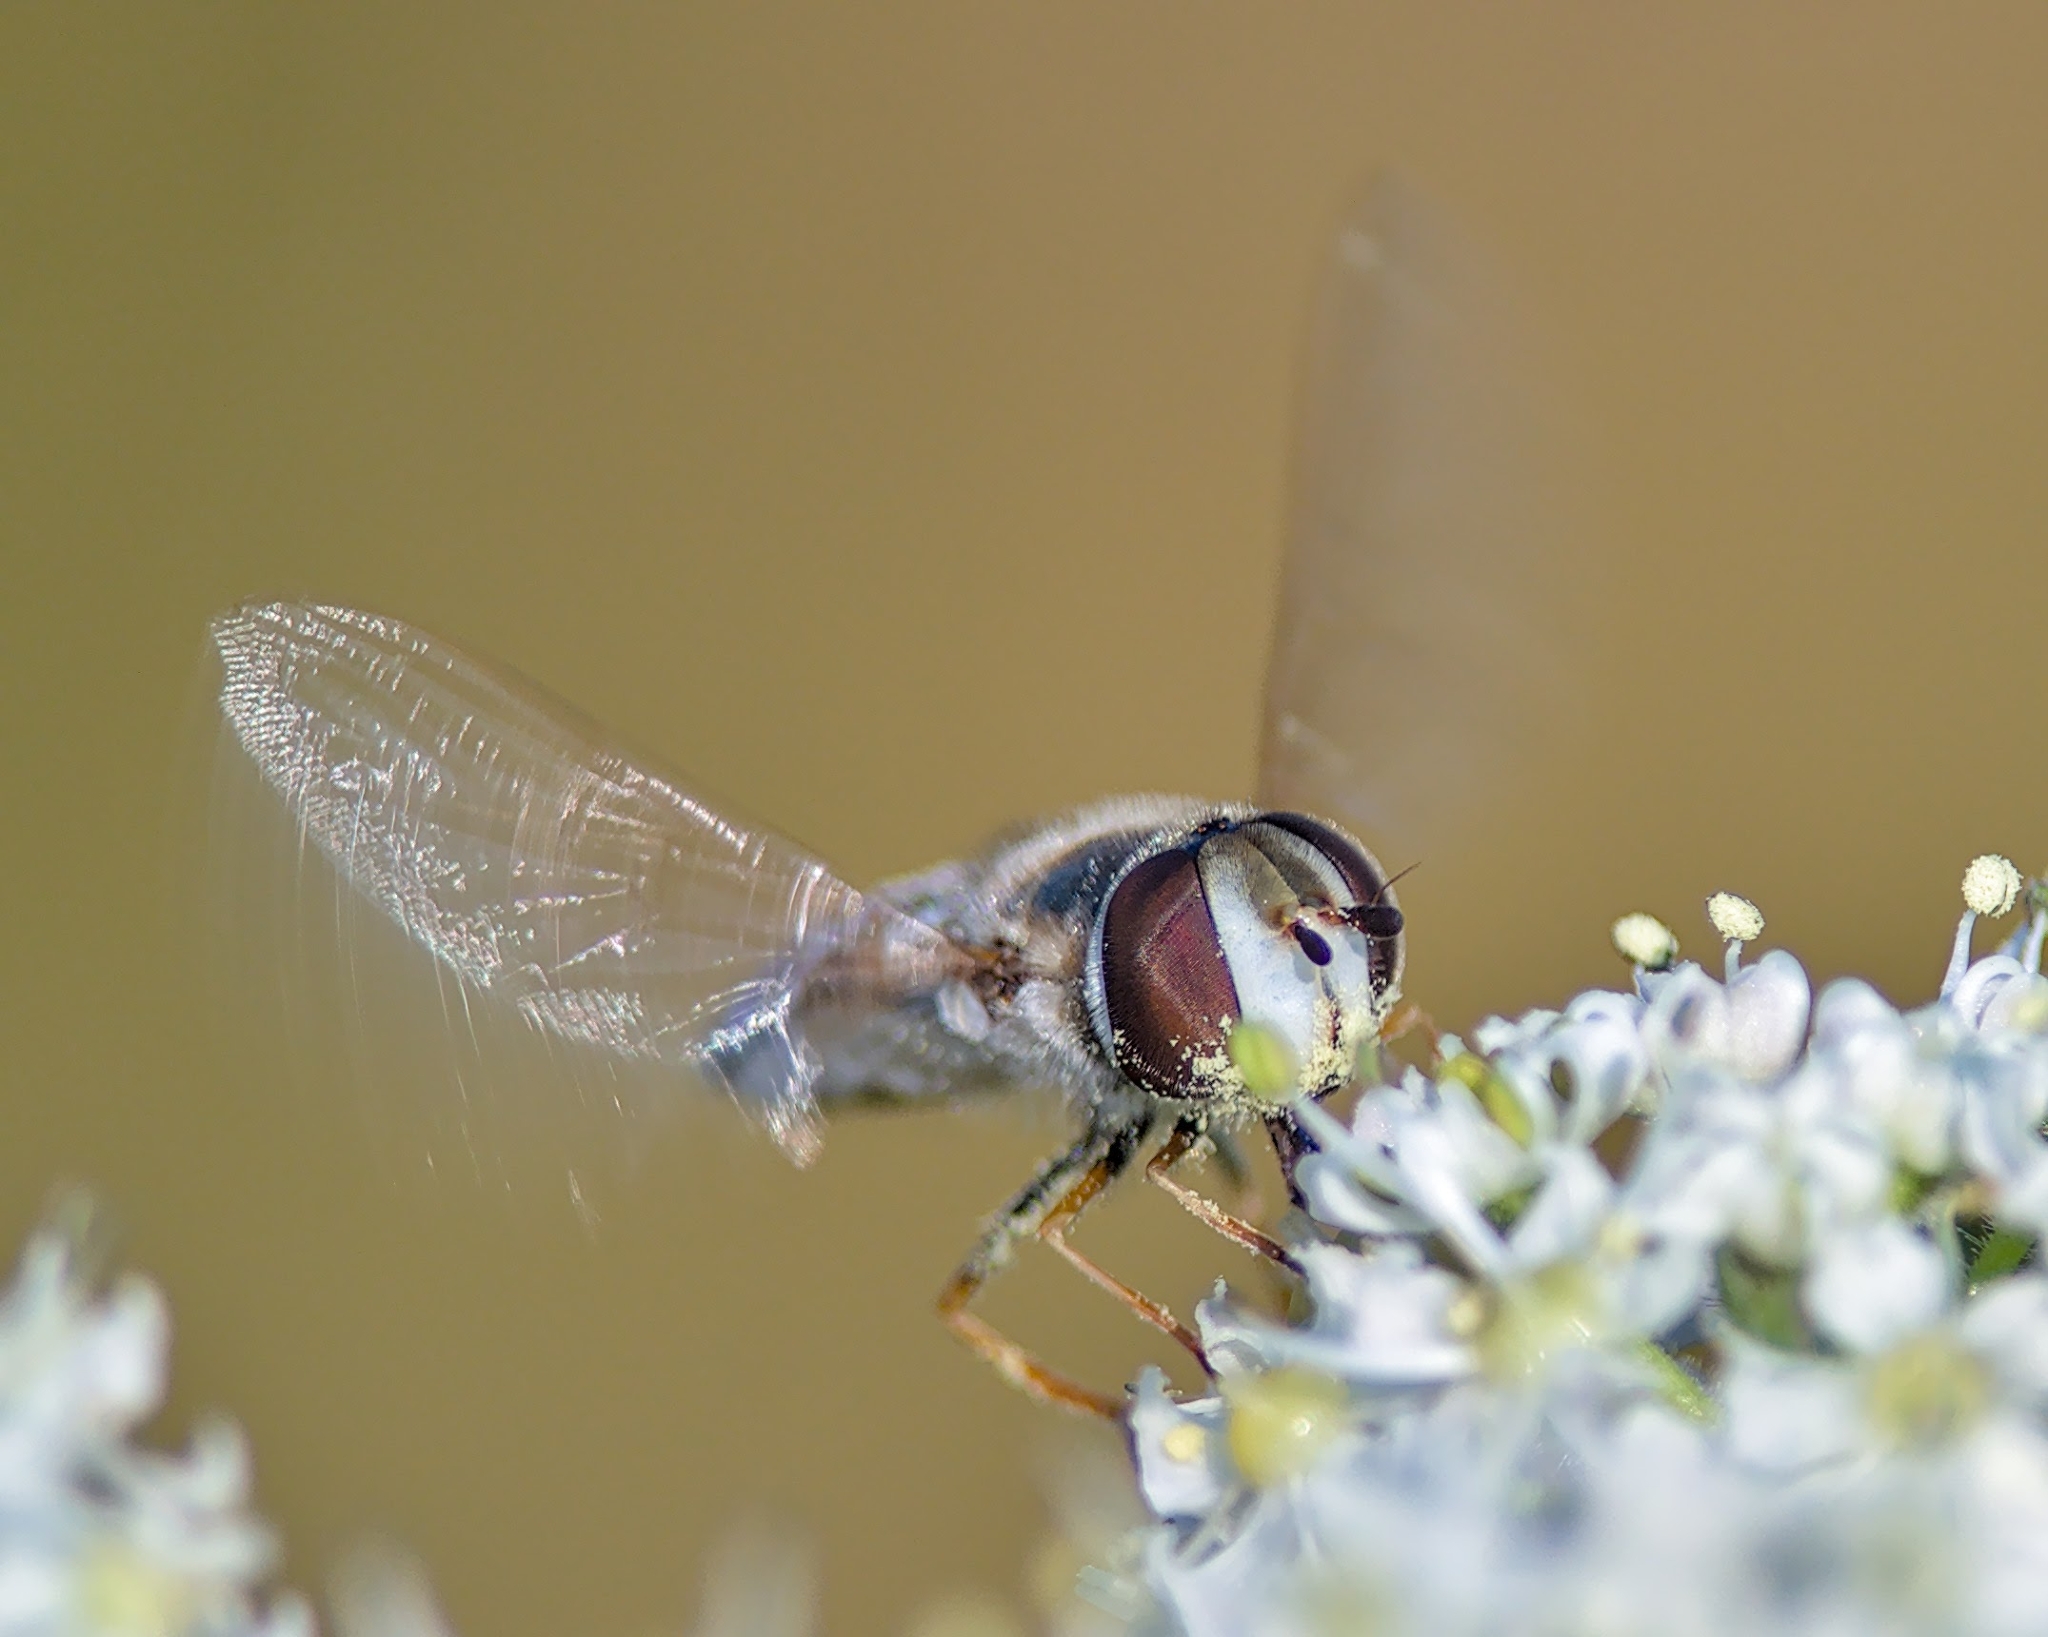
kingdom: Animalia
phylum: Arthropoda
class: Insecta
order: Diptera
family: Syrphidae
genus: Scaeva
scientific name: Scaeva pyrastri
